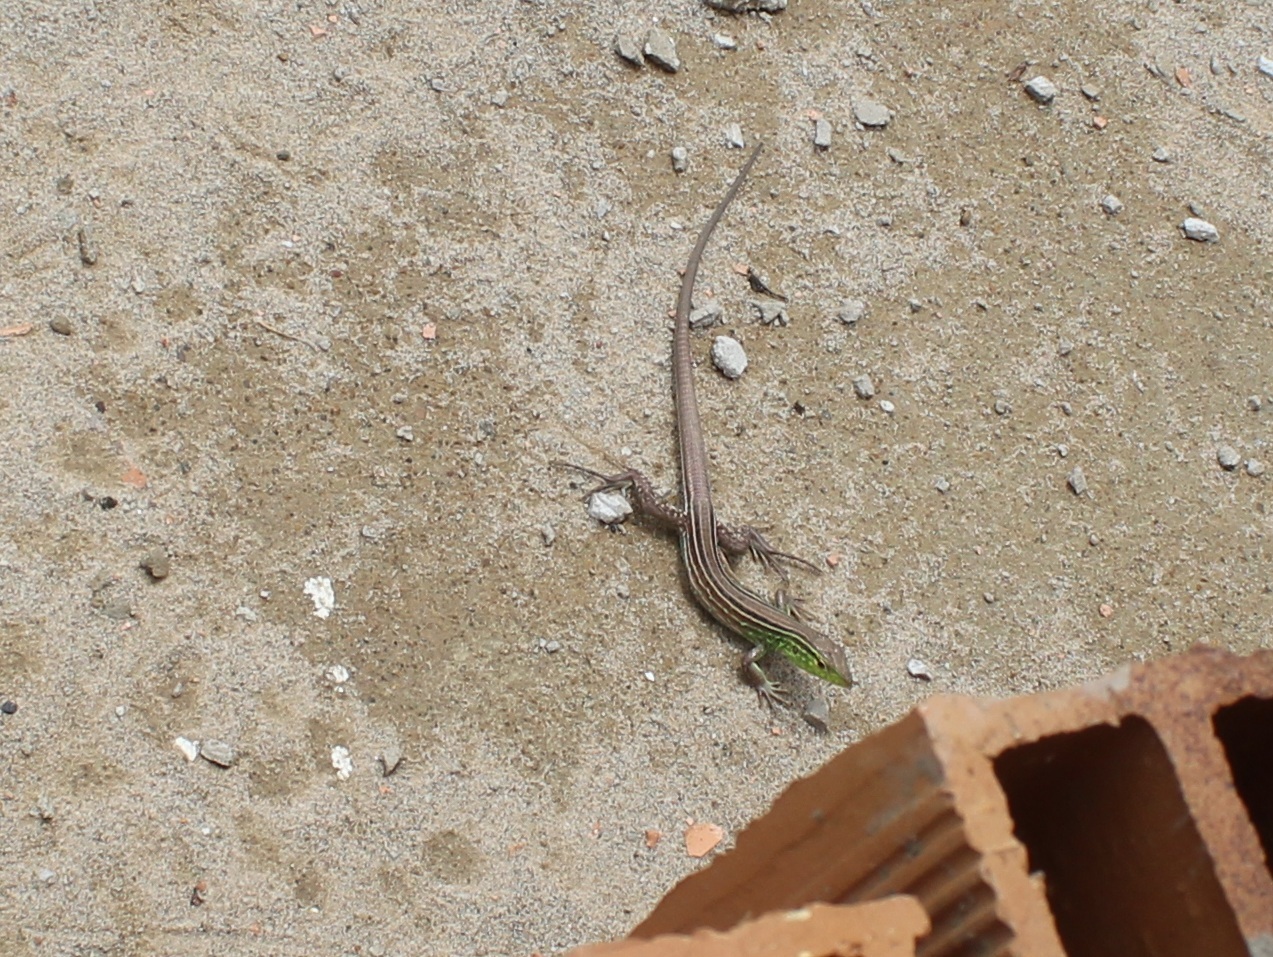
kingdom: Animalia
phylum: Chordata
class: Squamata
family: Teiidae
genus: Cnemidophorus
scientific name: Cnemidophorus gramivagus
